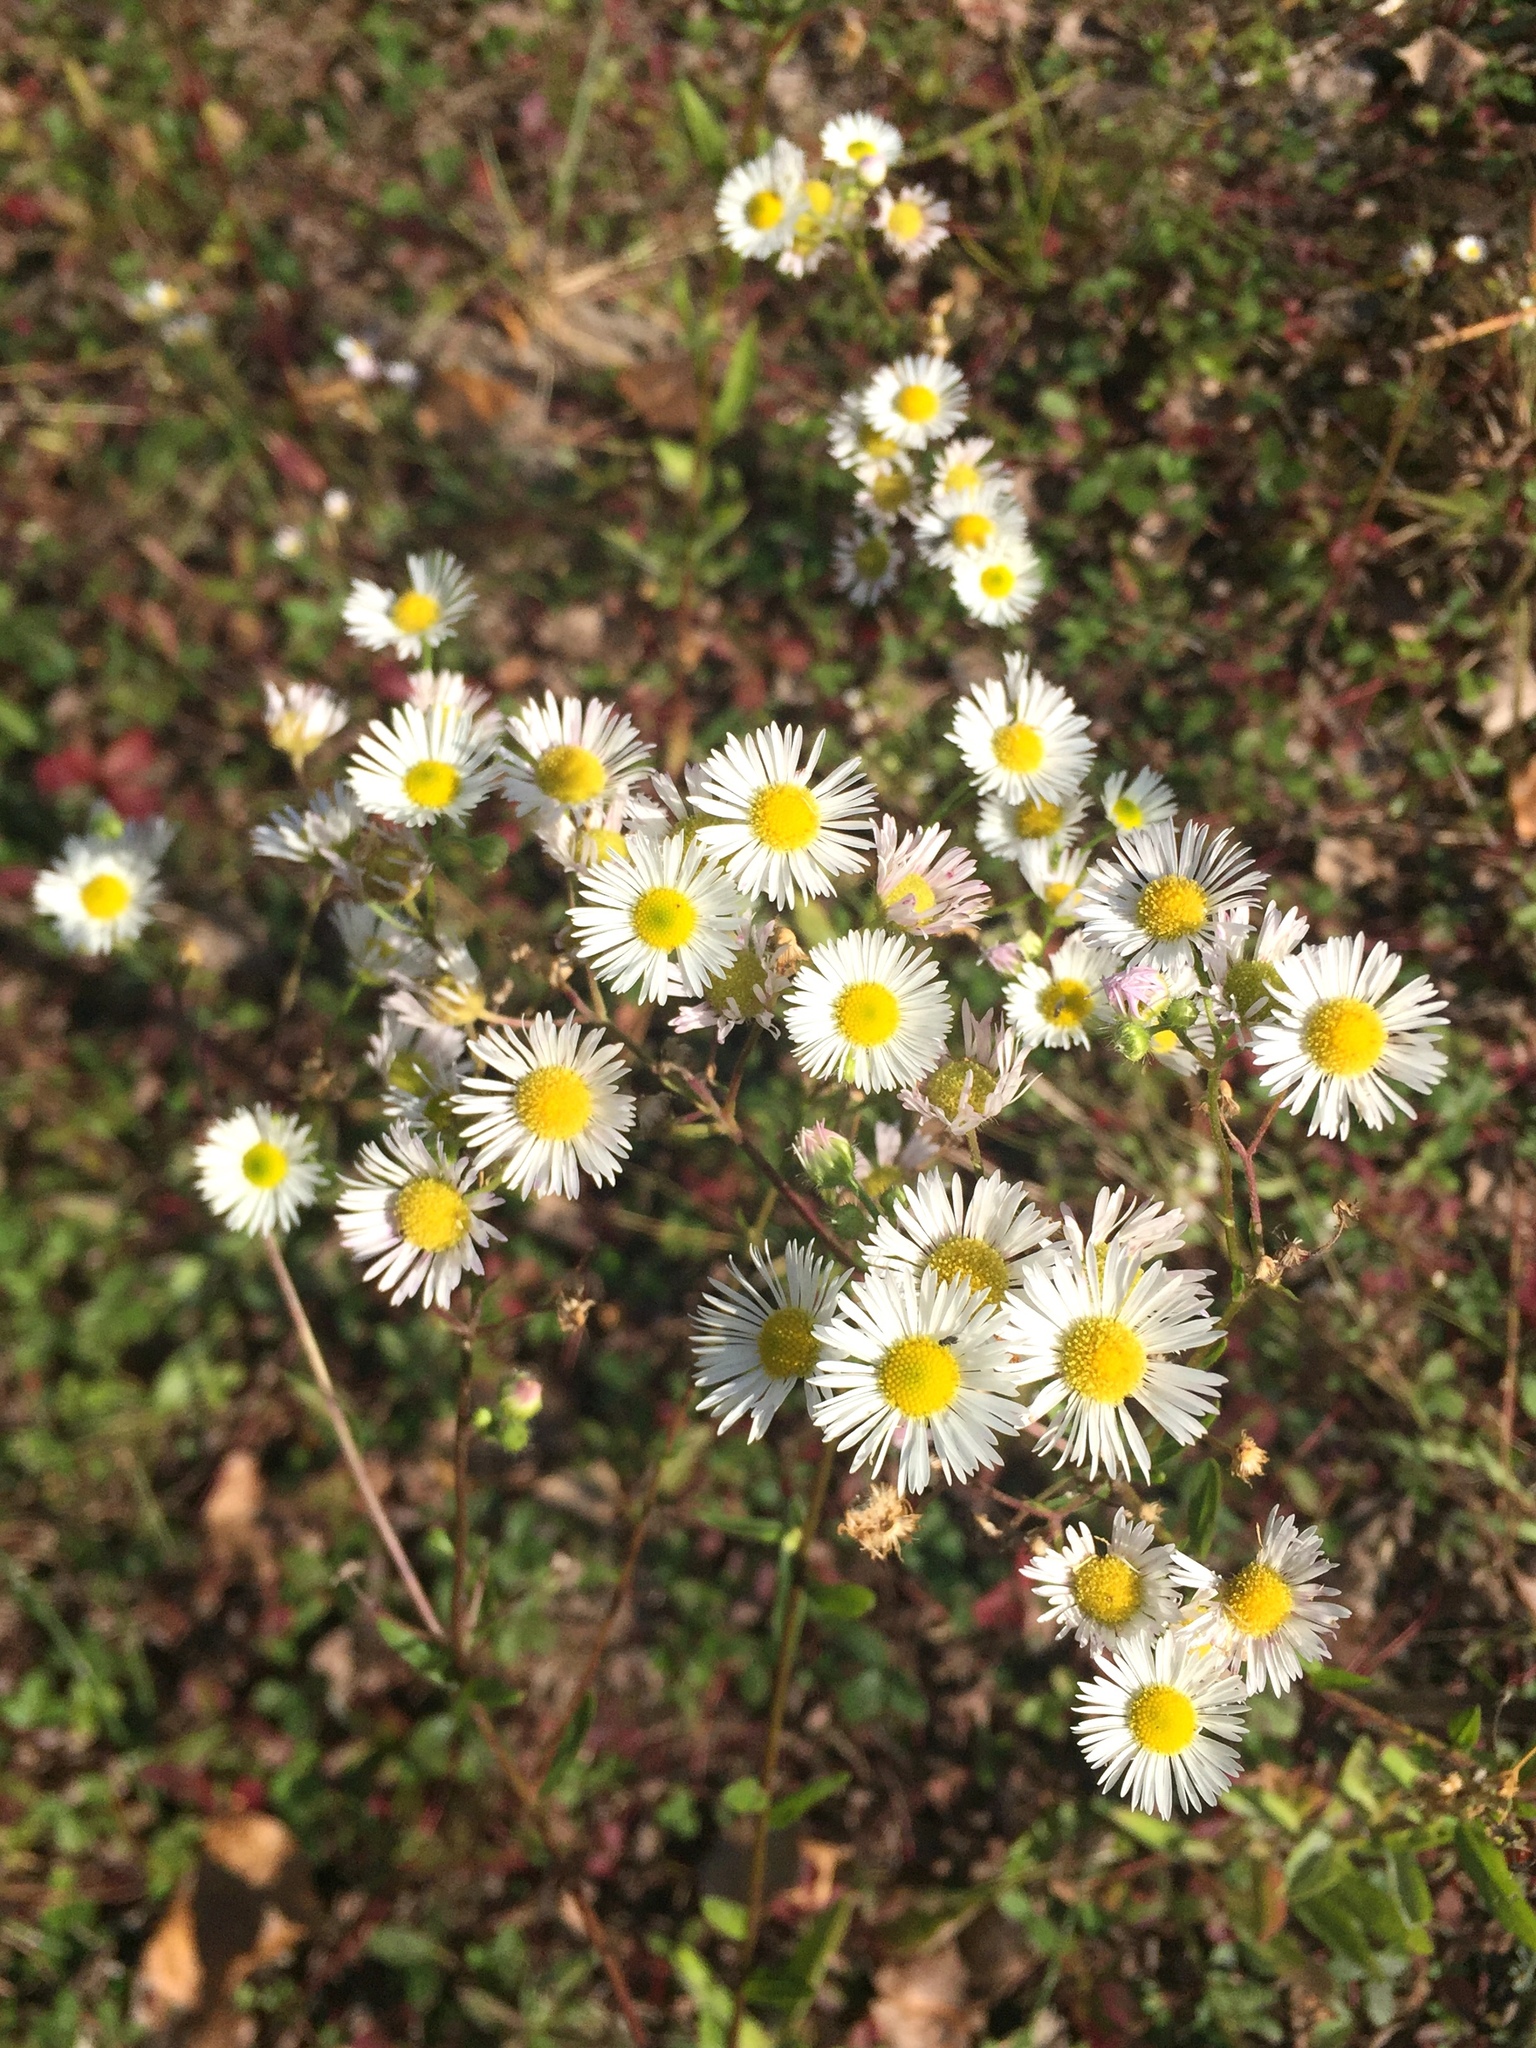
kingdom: Plantae
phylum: Tracheophyta
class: Magnoliopsida
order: Asterales
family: Asteraceae
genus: Erigeron
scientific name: Erigeron strigosus
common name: Common eastern fleabane
